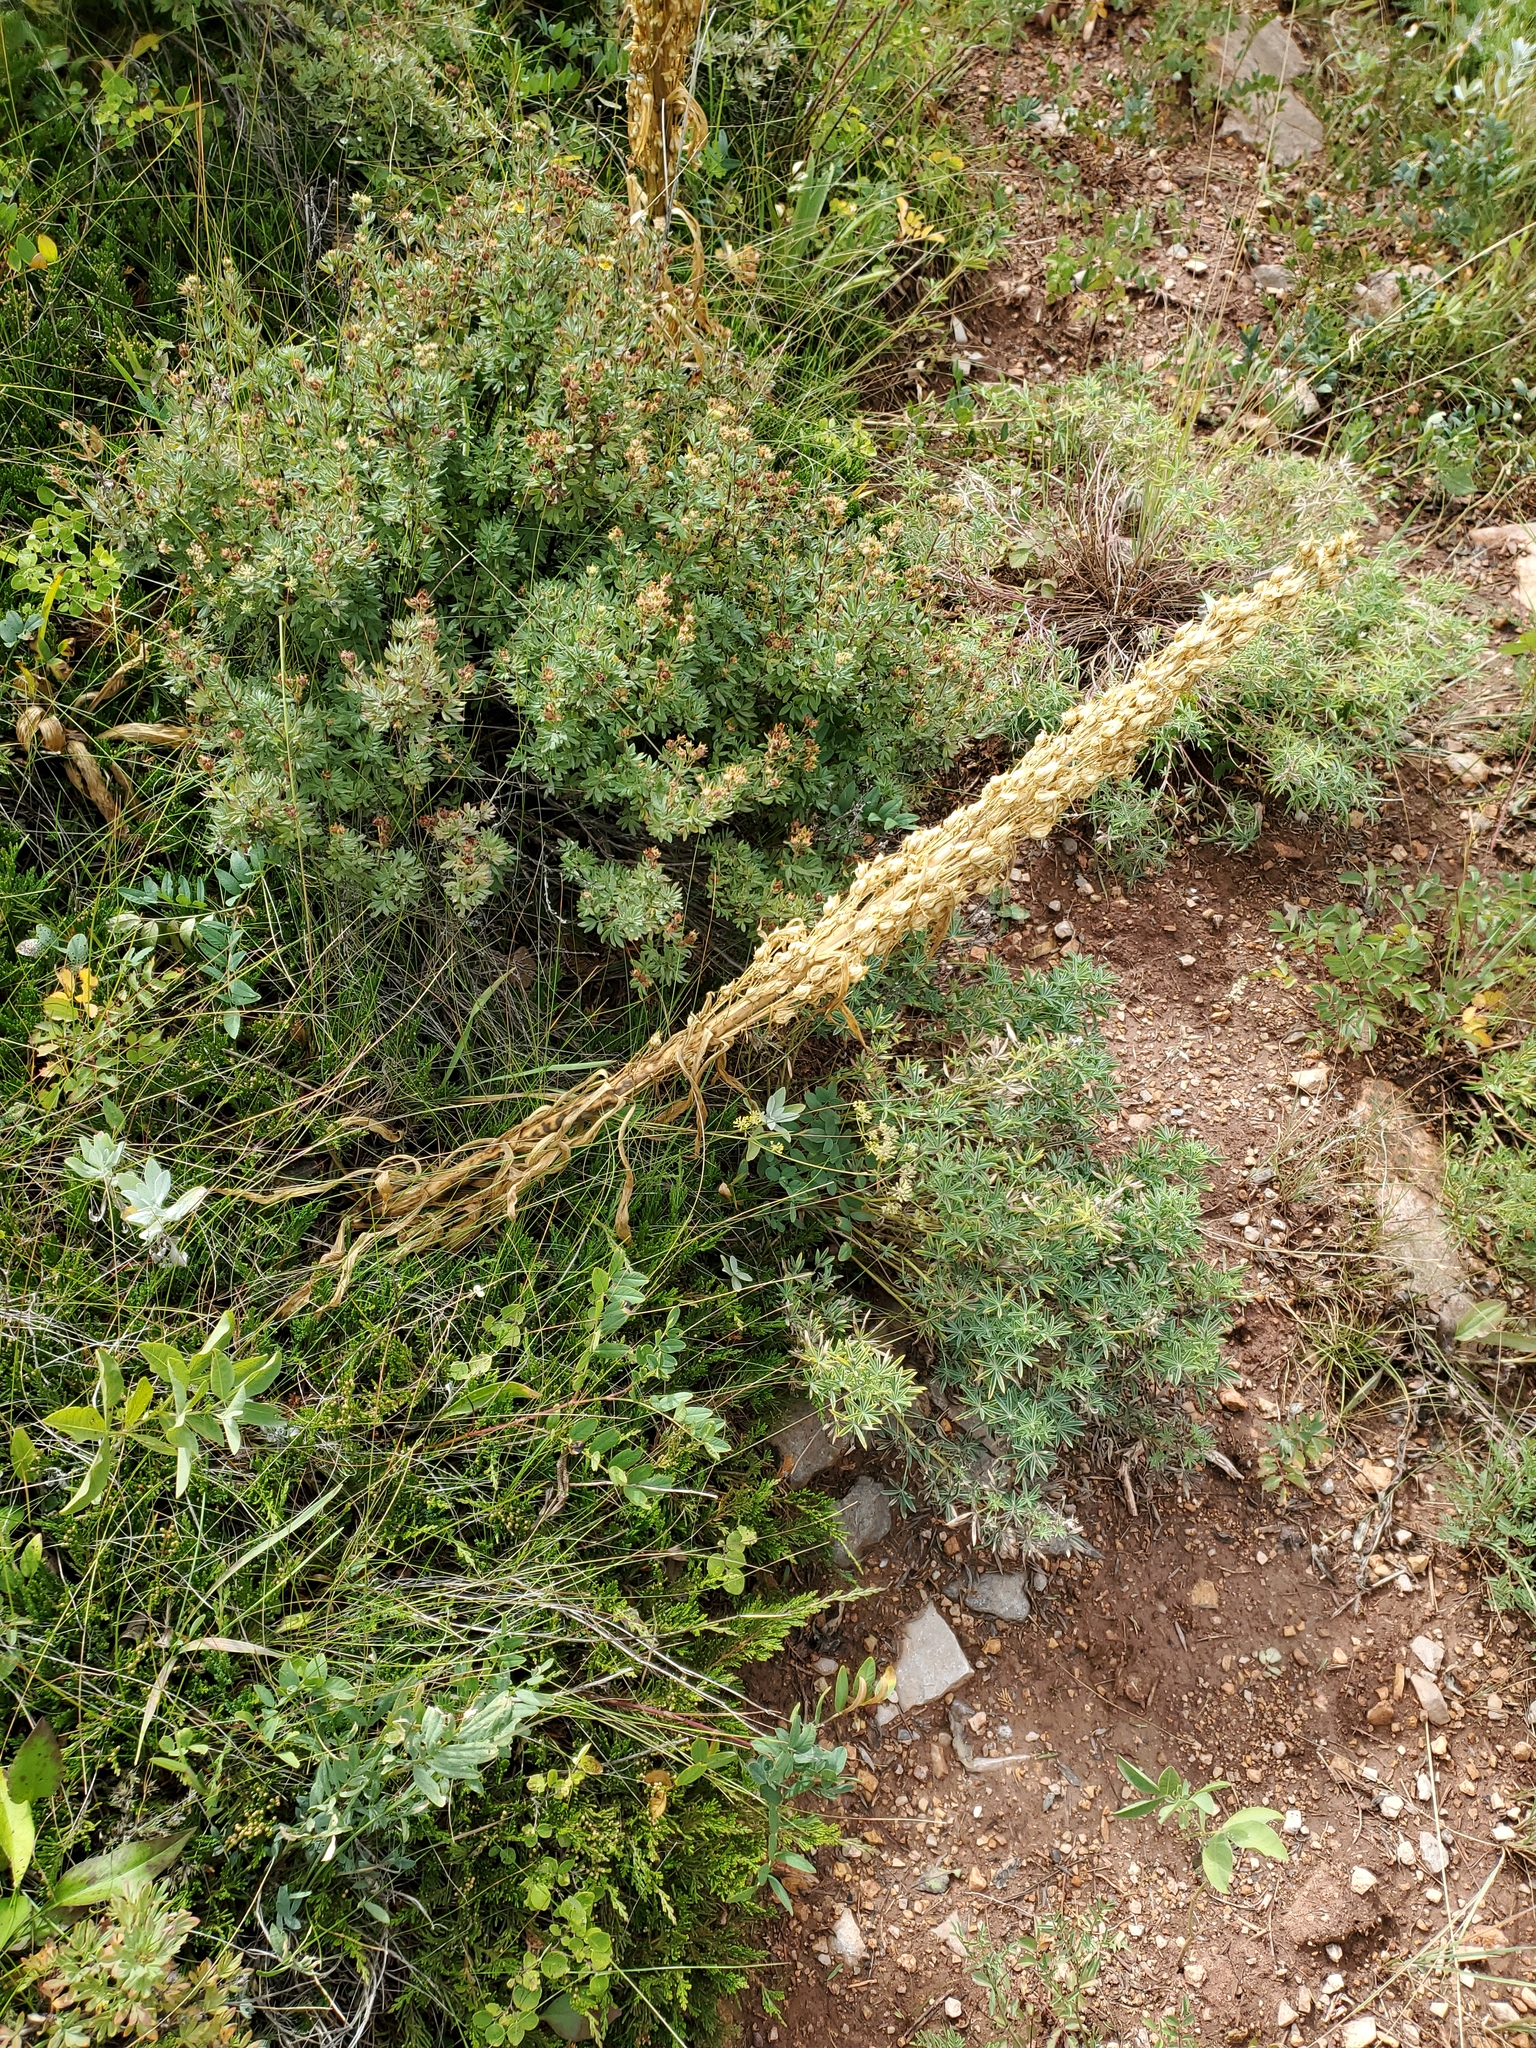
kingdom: Plantae
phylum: Tracheophyta
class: Magnoliopsida
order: Gentianales
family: Gentianaceae
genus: Frasera
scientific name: Frasera speciosa
